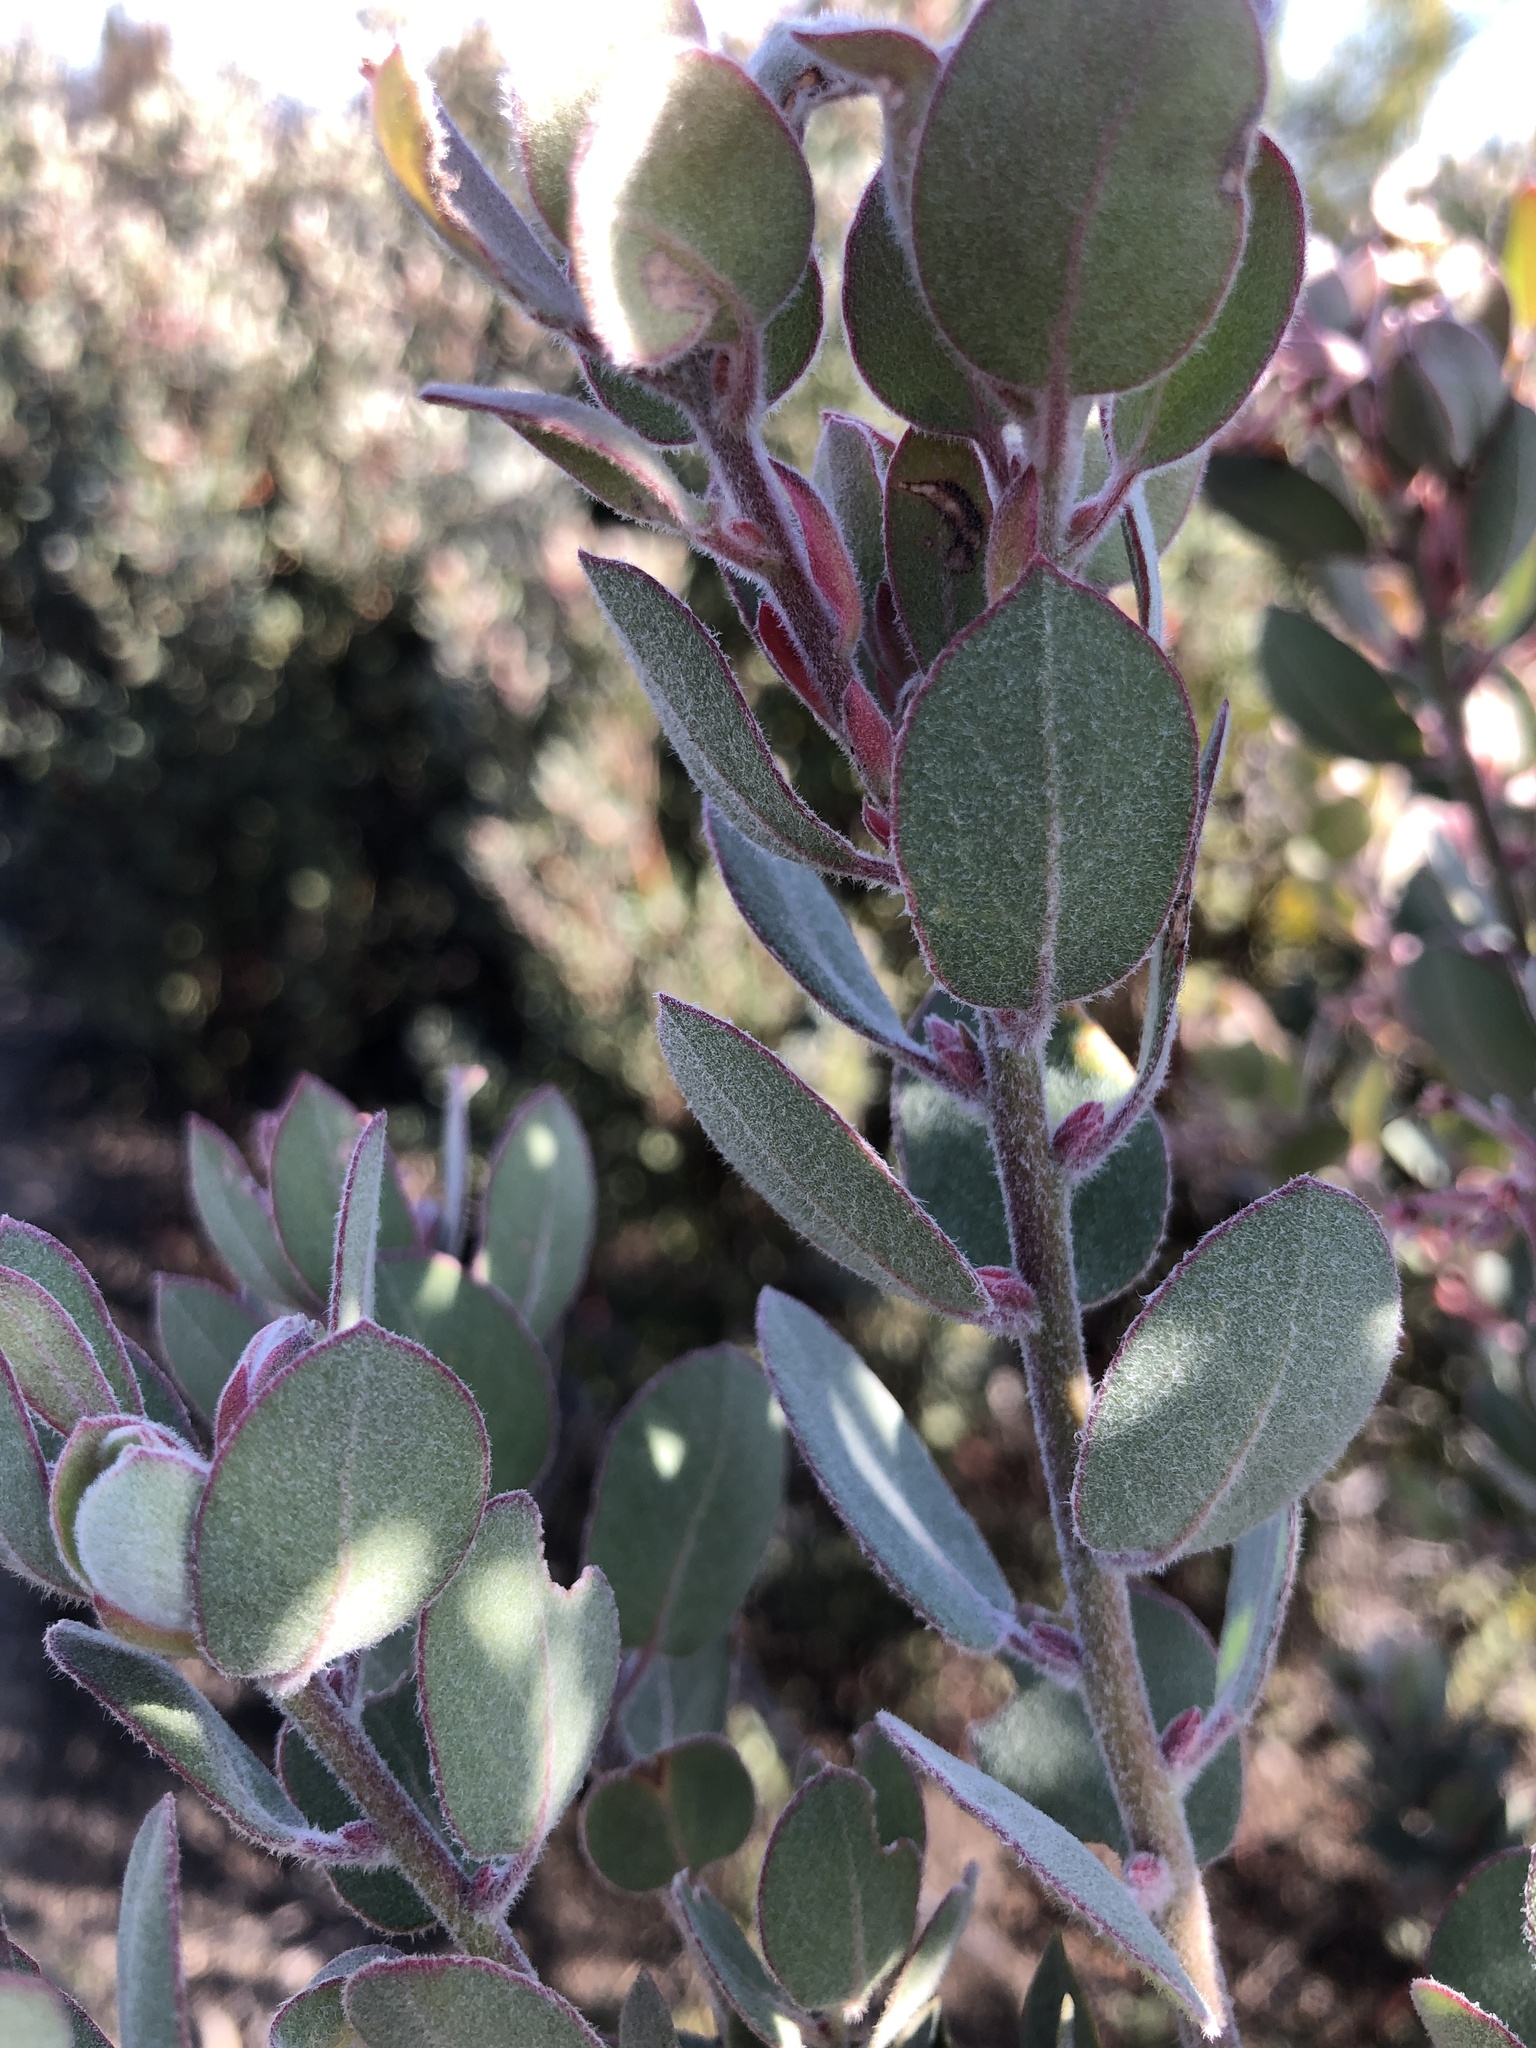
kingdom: Plantae
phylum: Tracheophyta
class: Magnoliopsida
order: Ericales
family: Ericaceae
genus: Arctostaphylos
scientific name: Arctostaphylos silvicola
